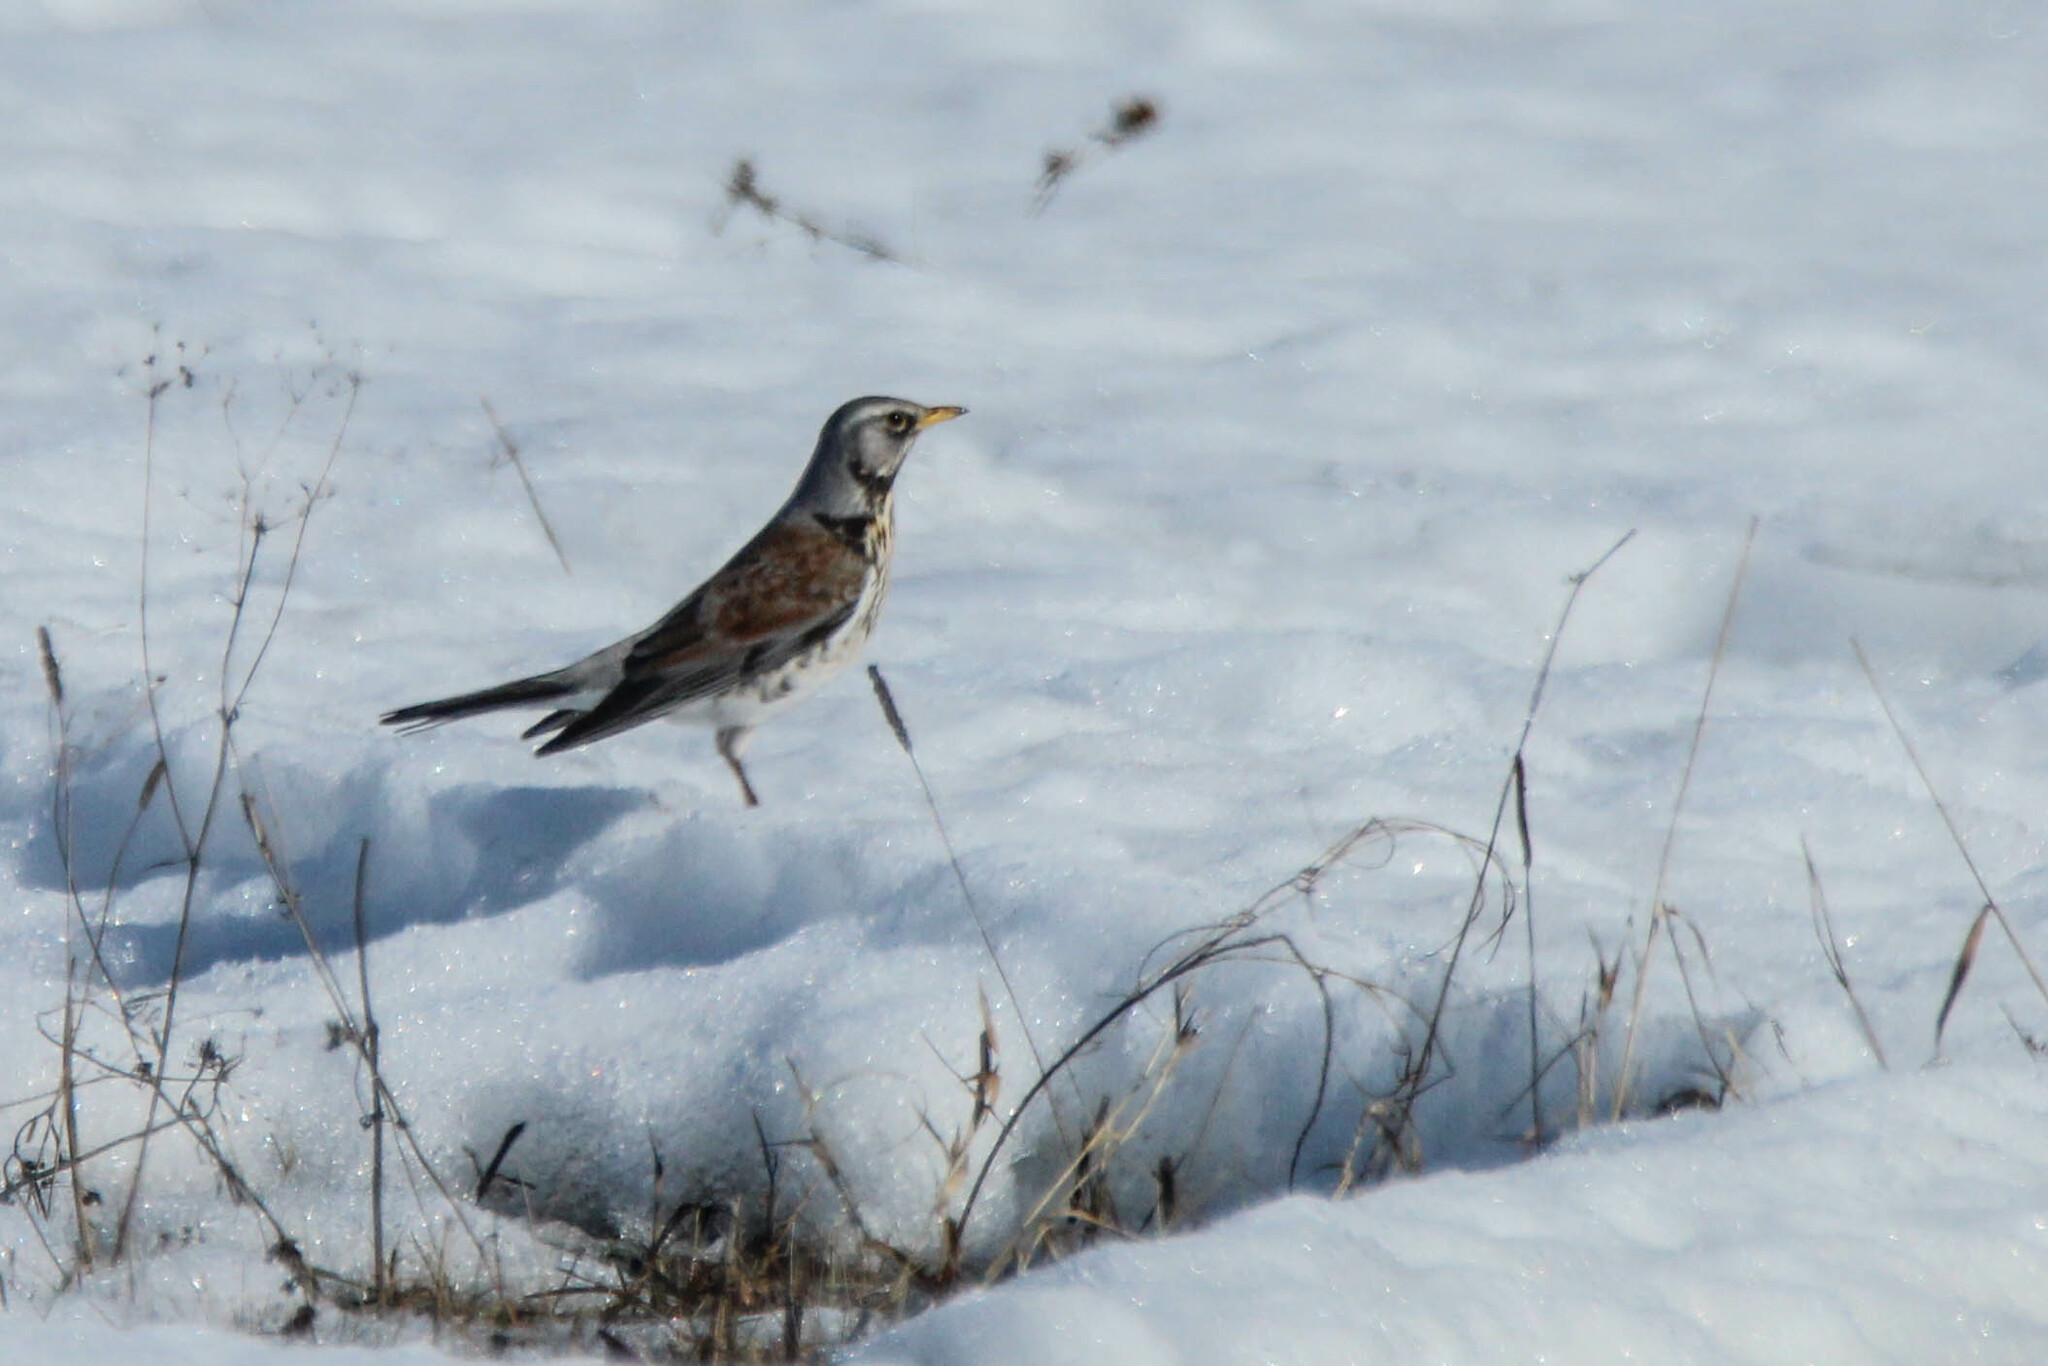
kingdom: Animalia
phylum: Chordata
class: Aves
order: Passeriformes
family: Turdidae
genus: Turdus
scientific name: Turdus pilaris
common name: Fieldfare
